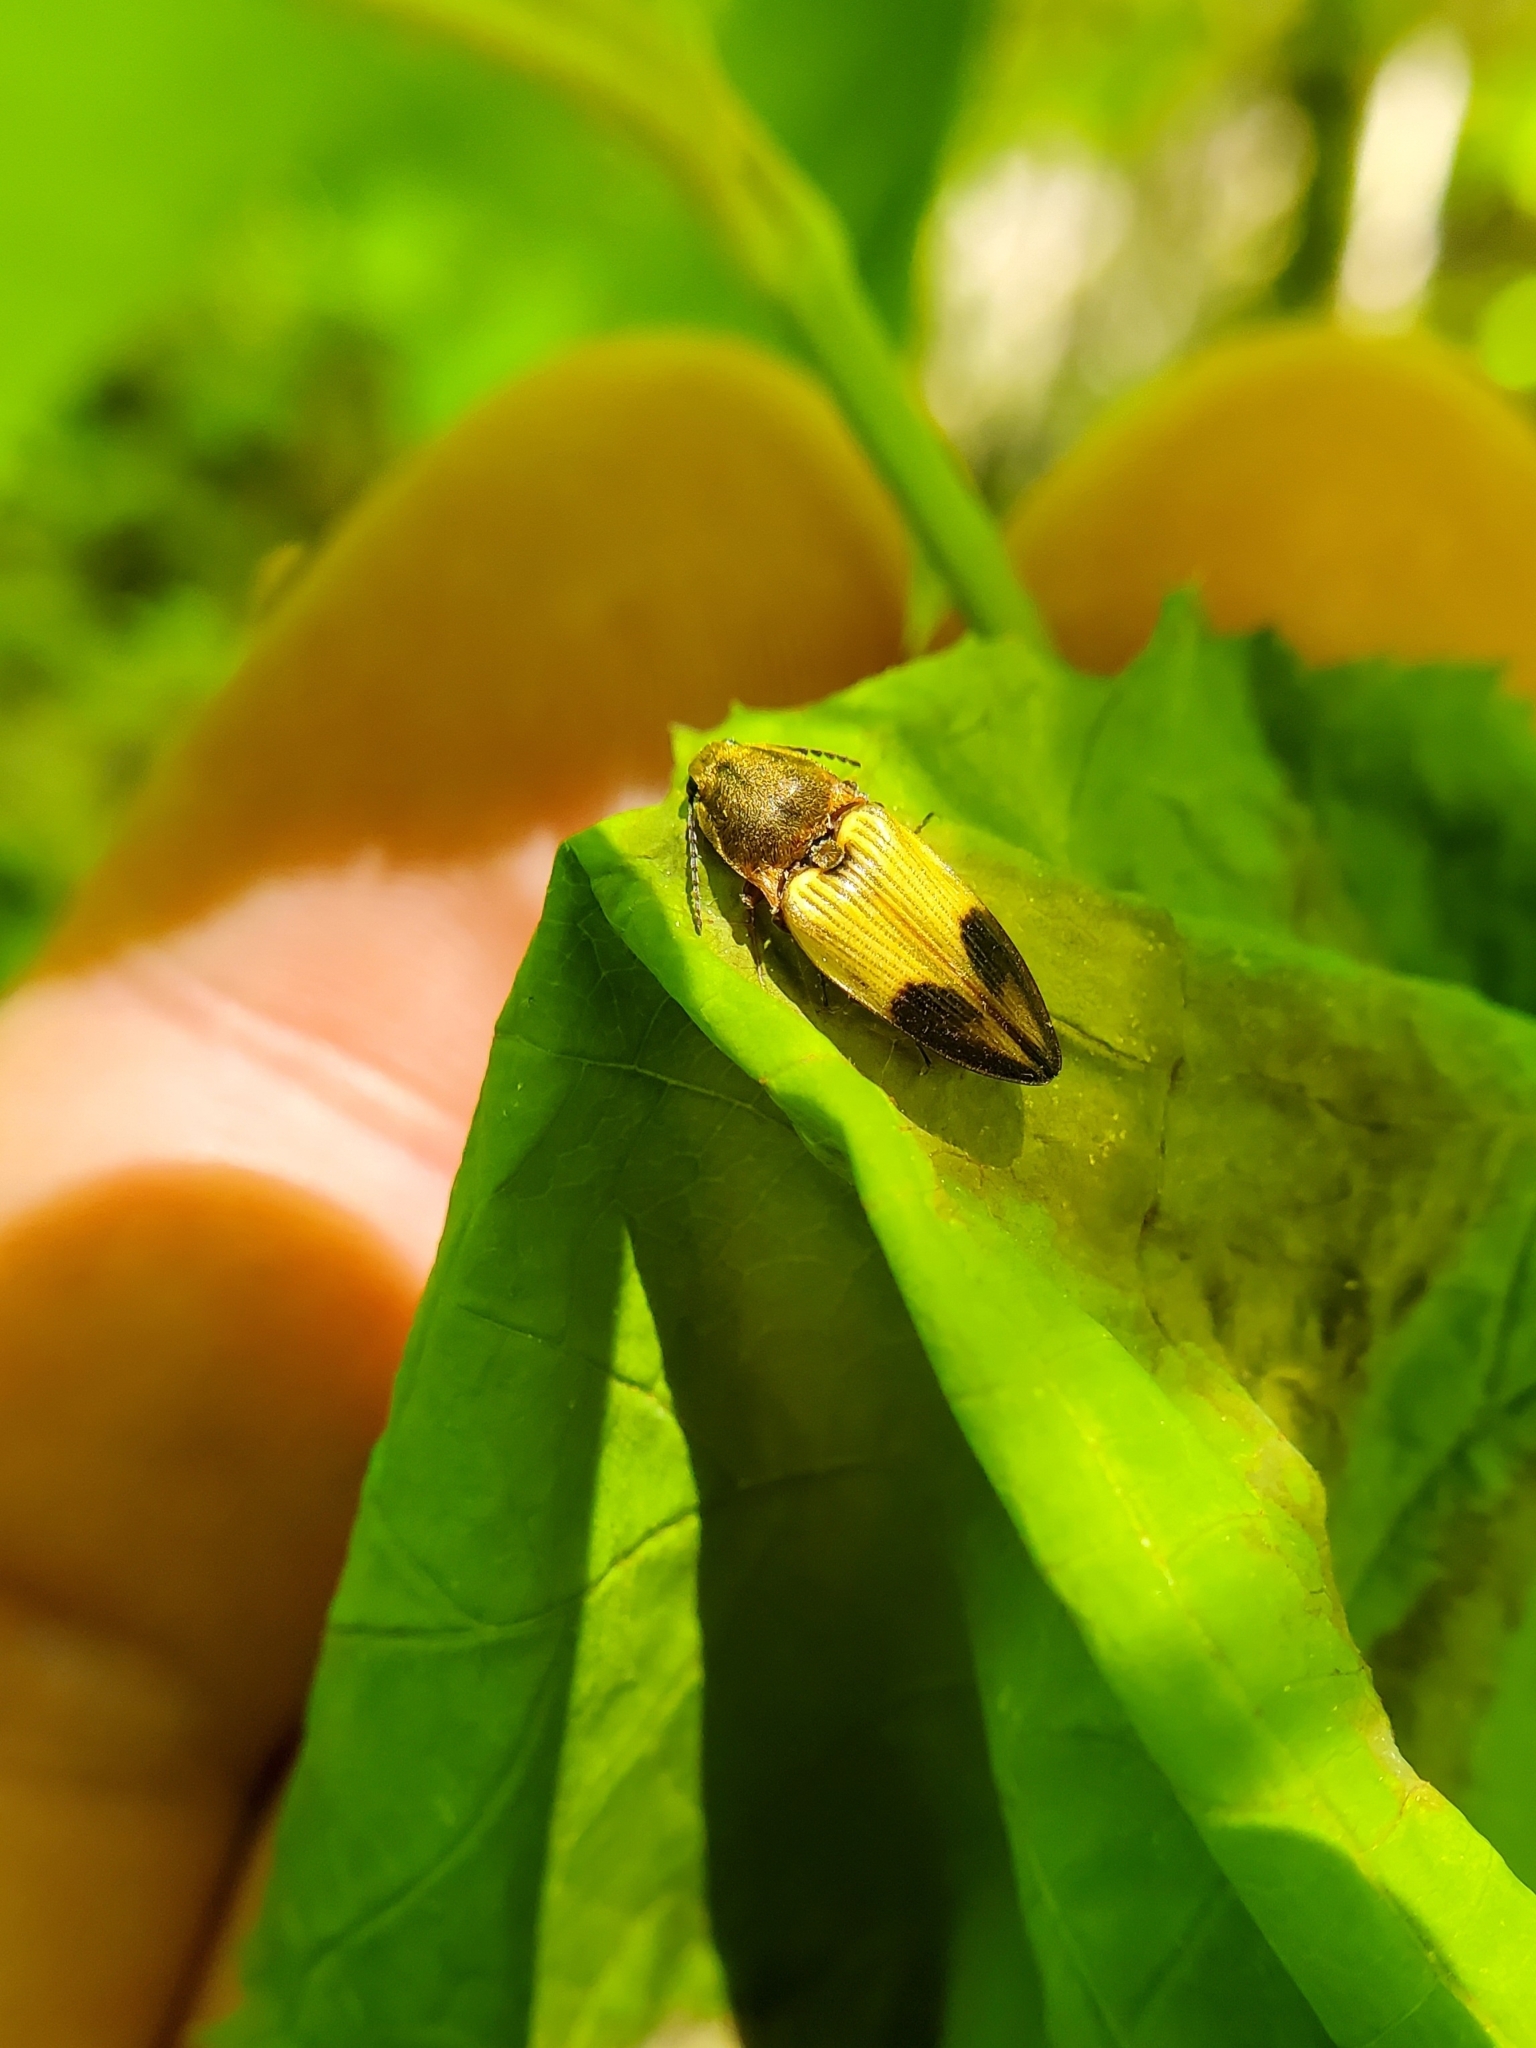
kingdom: Animalia
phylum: Arthropoda
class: Insecta
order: Coleoptera
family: Elateridae
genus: Stropenron
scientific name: Stropenron hamata
